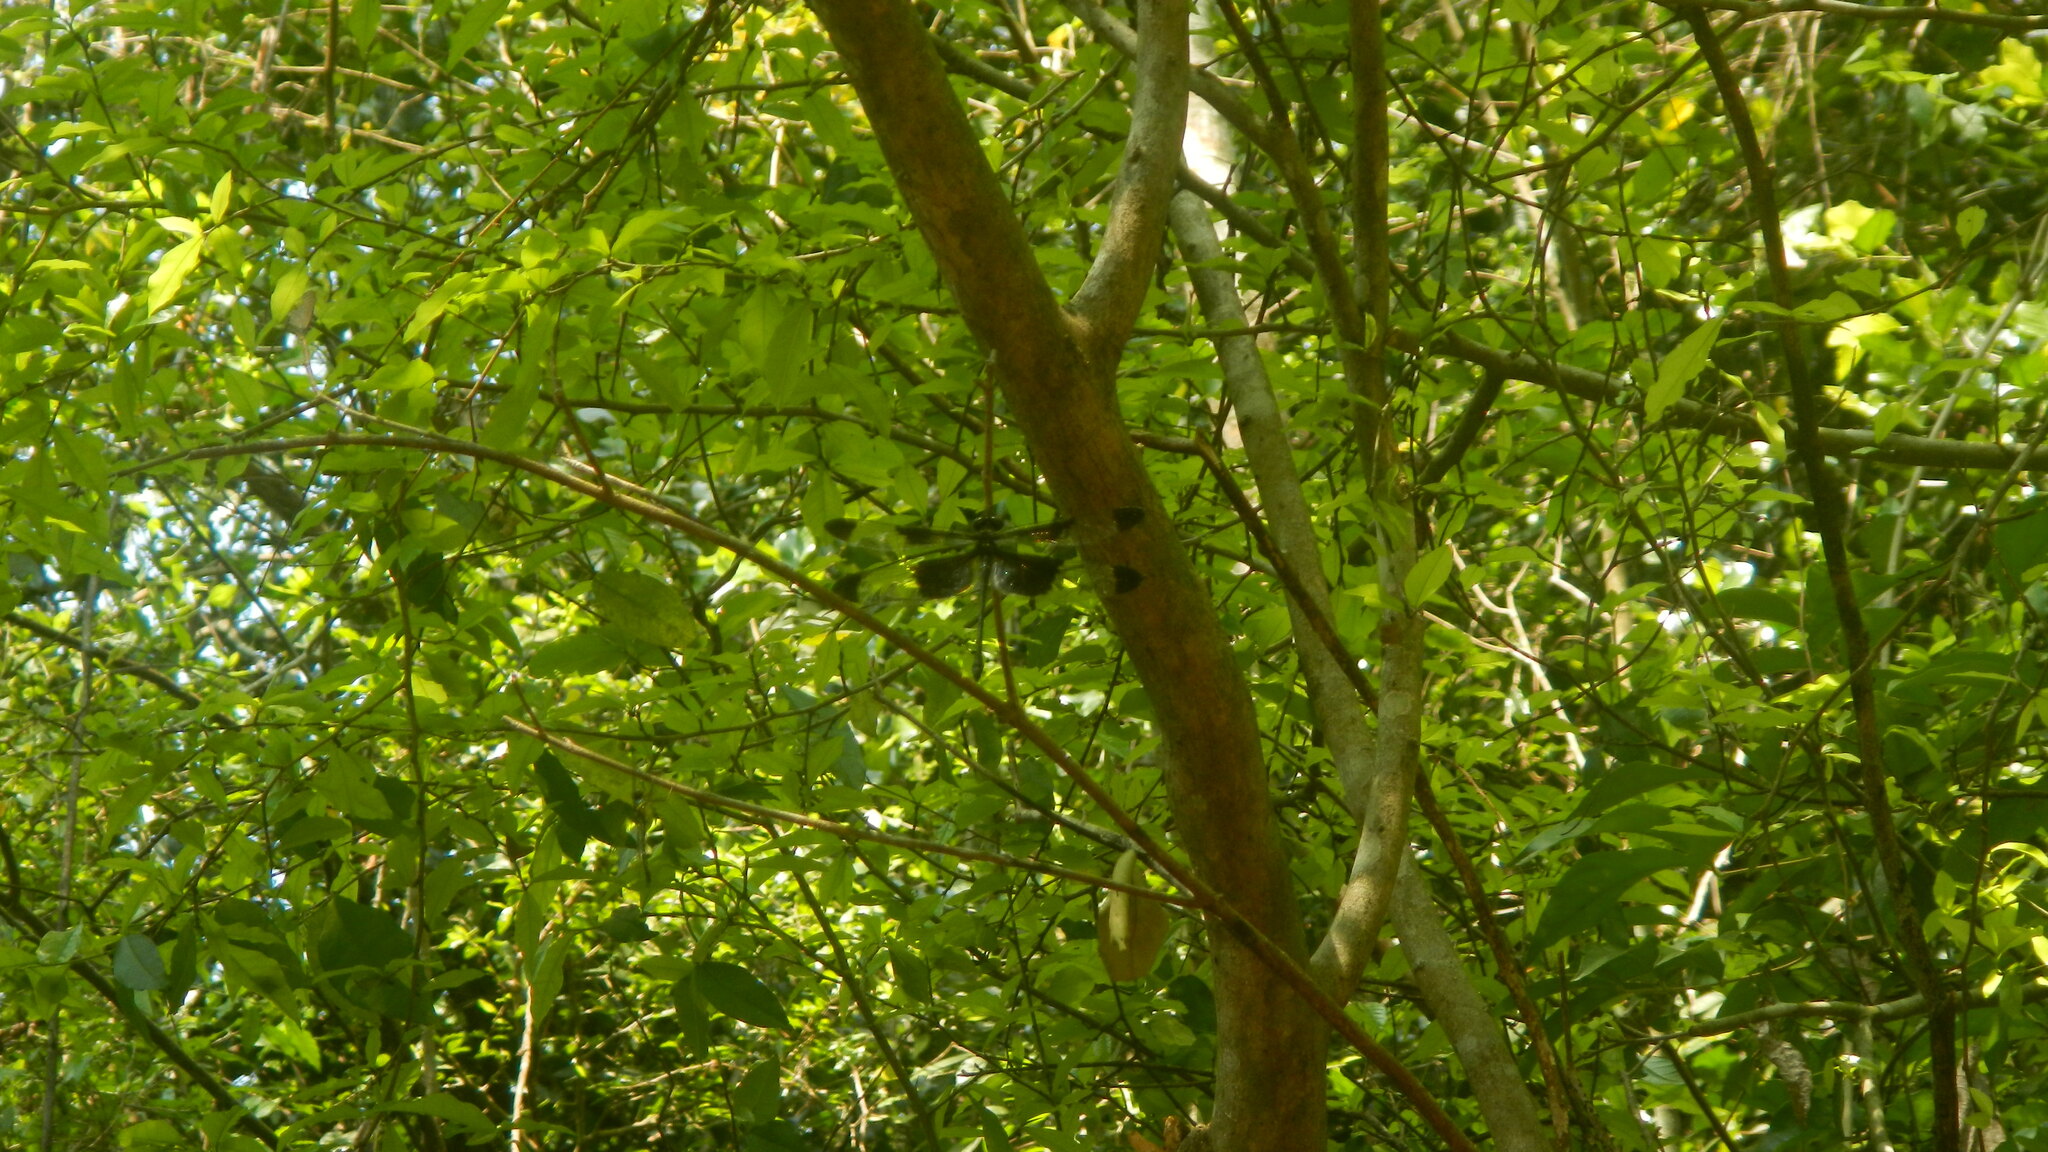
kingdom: Animalia
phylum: Arthropoda
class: Insecta
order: Odonata
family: Chlorogomphidae
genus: Chlorogomphus
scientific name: Chlorogomphus usudai
